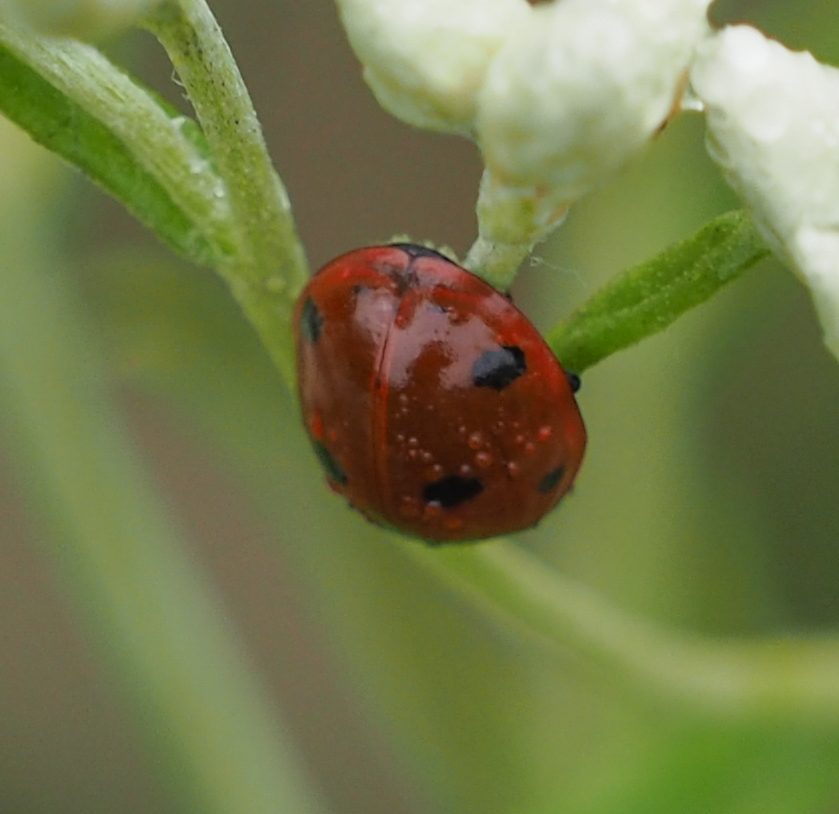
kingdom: Animalia
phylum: Arthropoda
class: Insecta
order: Coleoptera
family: Coccinellidae
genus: Coccinella
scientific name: Coccinella septempunctata
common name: Sevenspotted lady beetle
